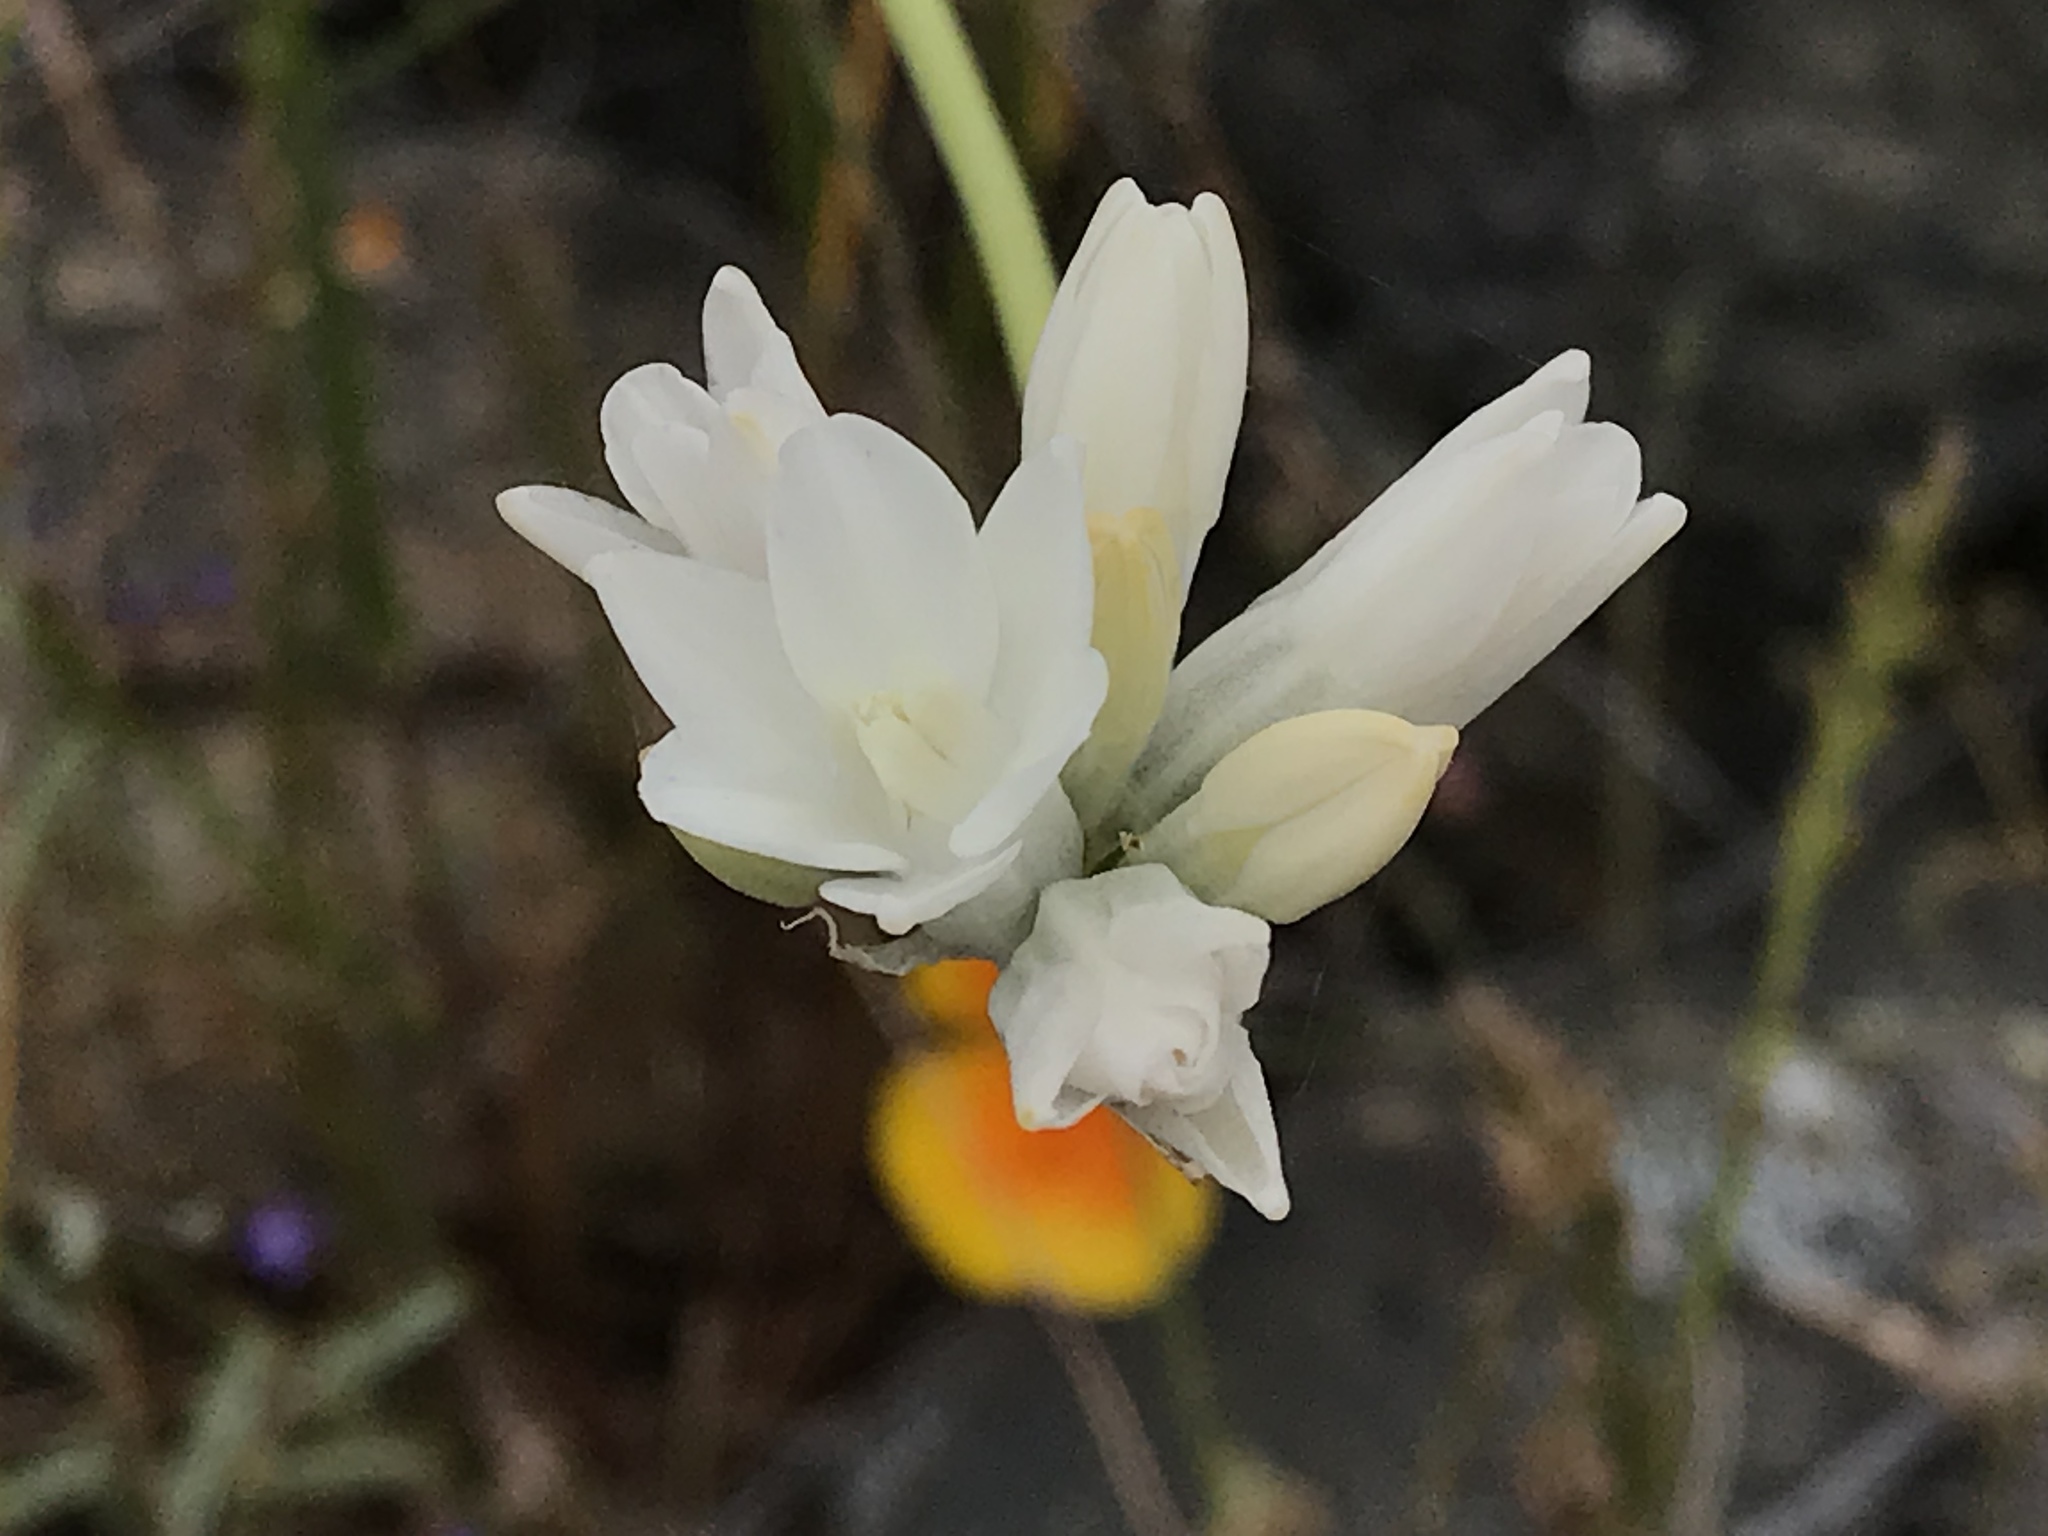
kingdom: Plantae
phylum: Tracheophyta
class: Liliopsida
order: Asparagales
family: Asparagaceae
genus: Dipterostemon
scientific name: Dipterostemon capitatus
